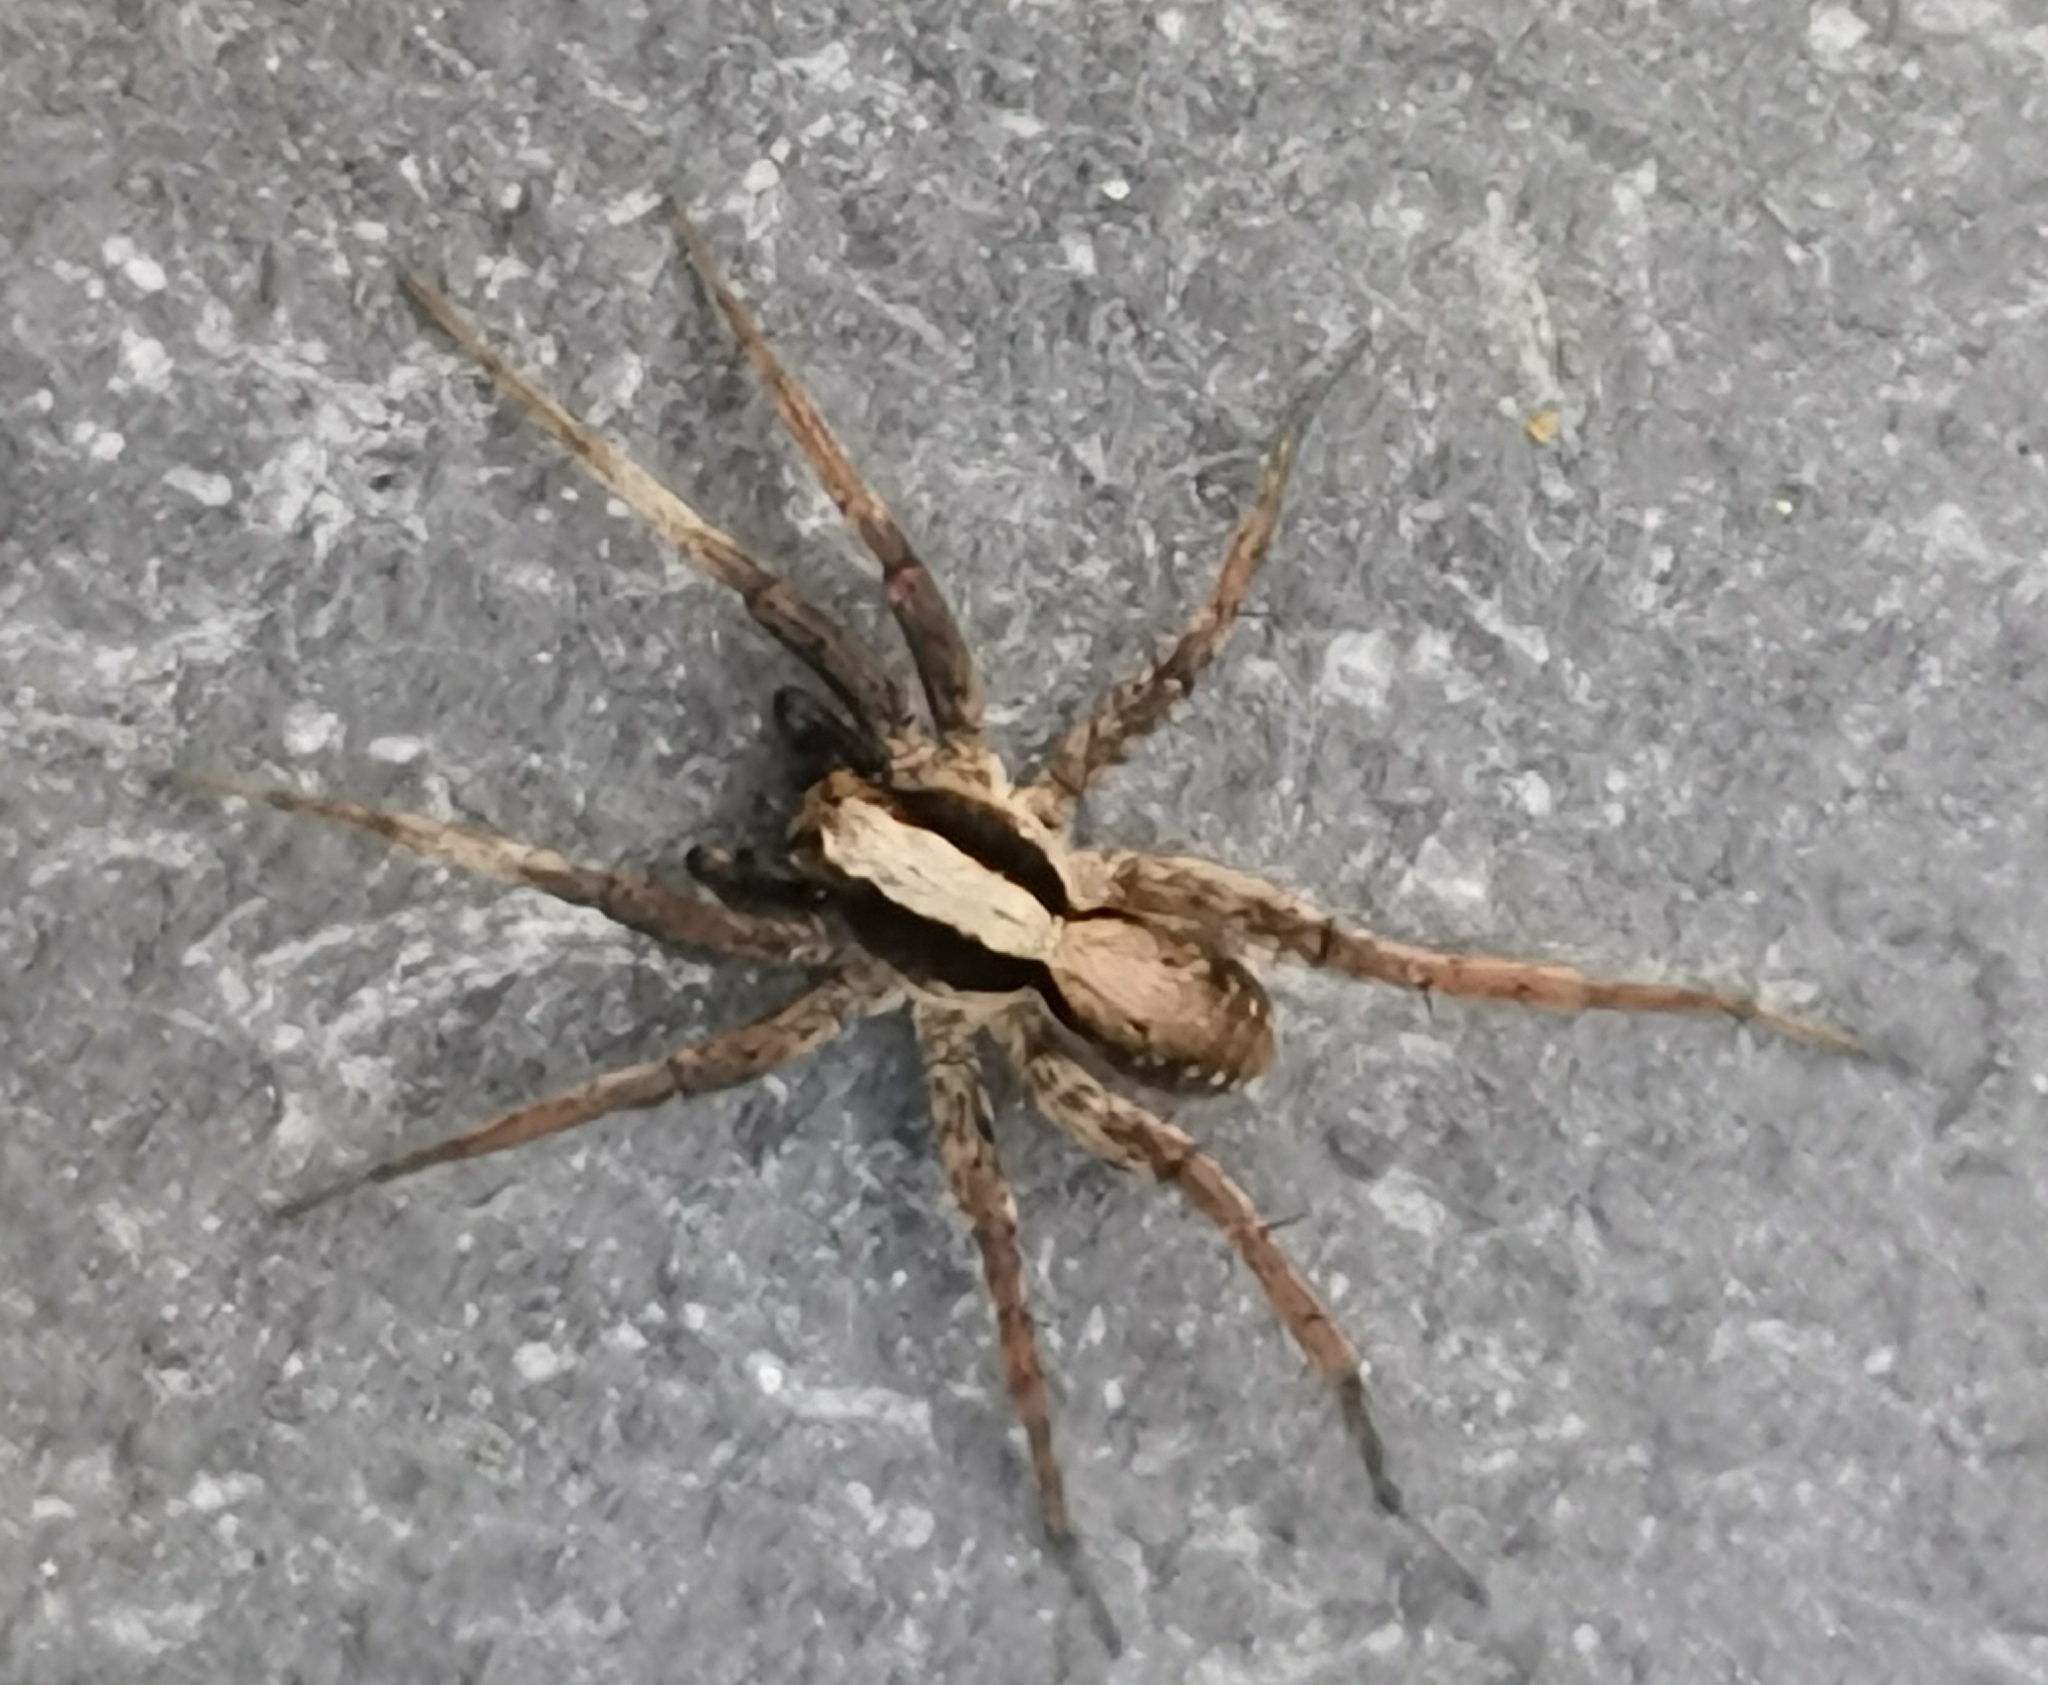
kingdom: Animalia
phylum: Arthropoda
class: Arachnida
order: Araneae
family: Lycosidae
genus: Xerolycosa
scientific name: Xerolycosa nemoralis
